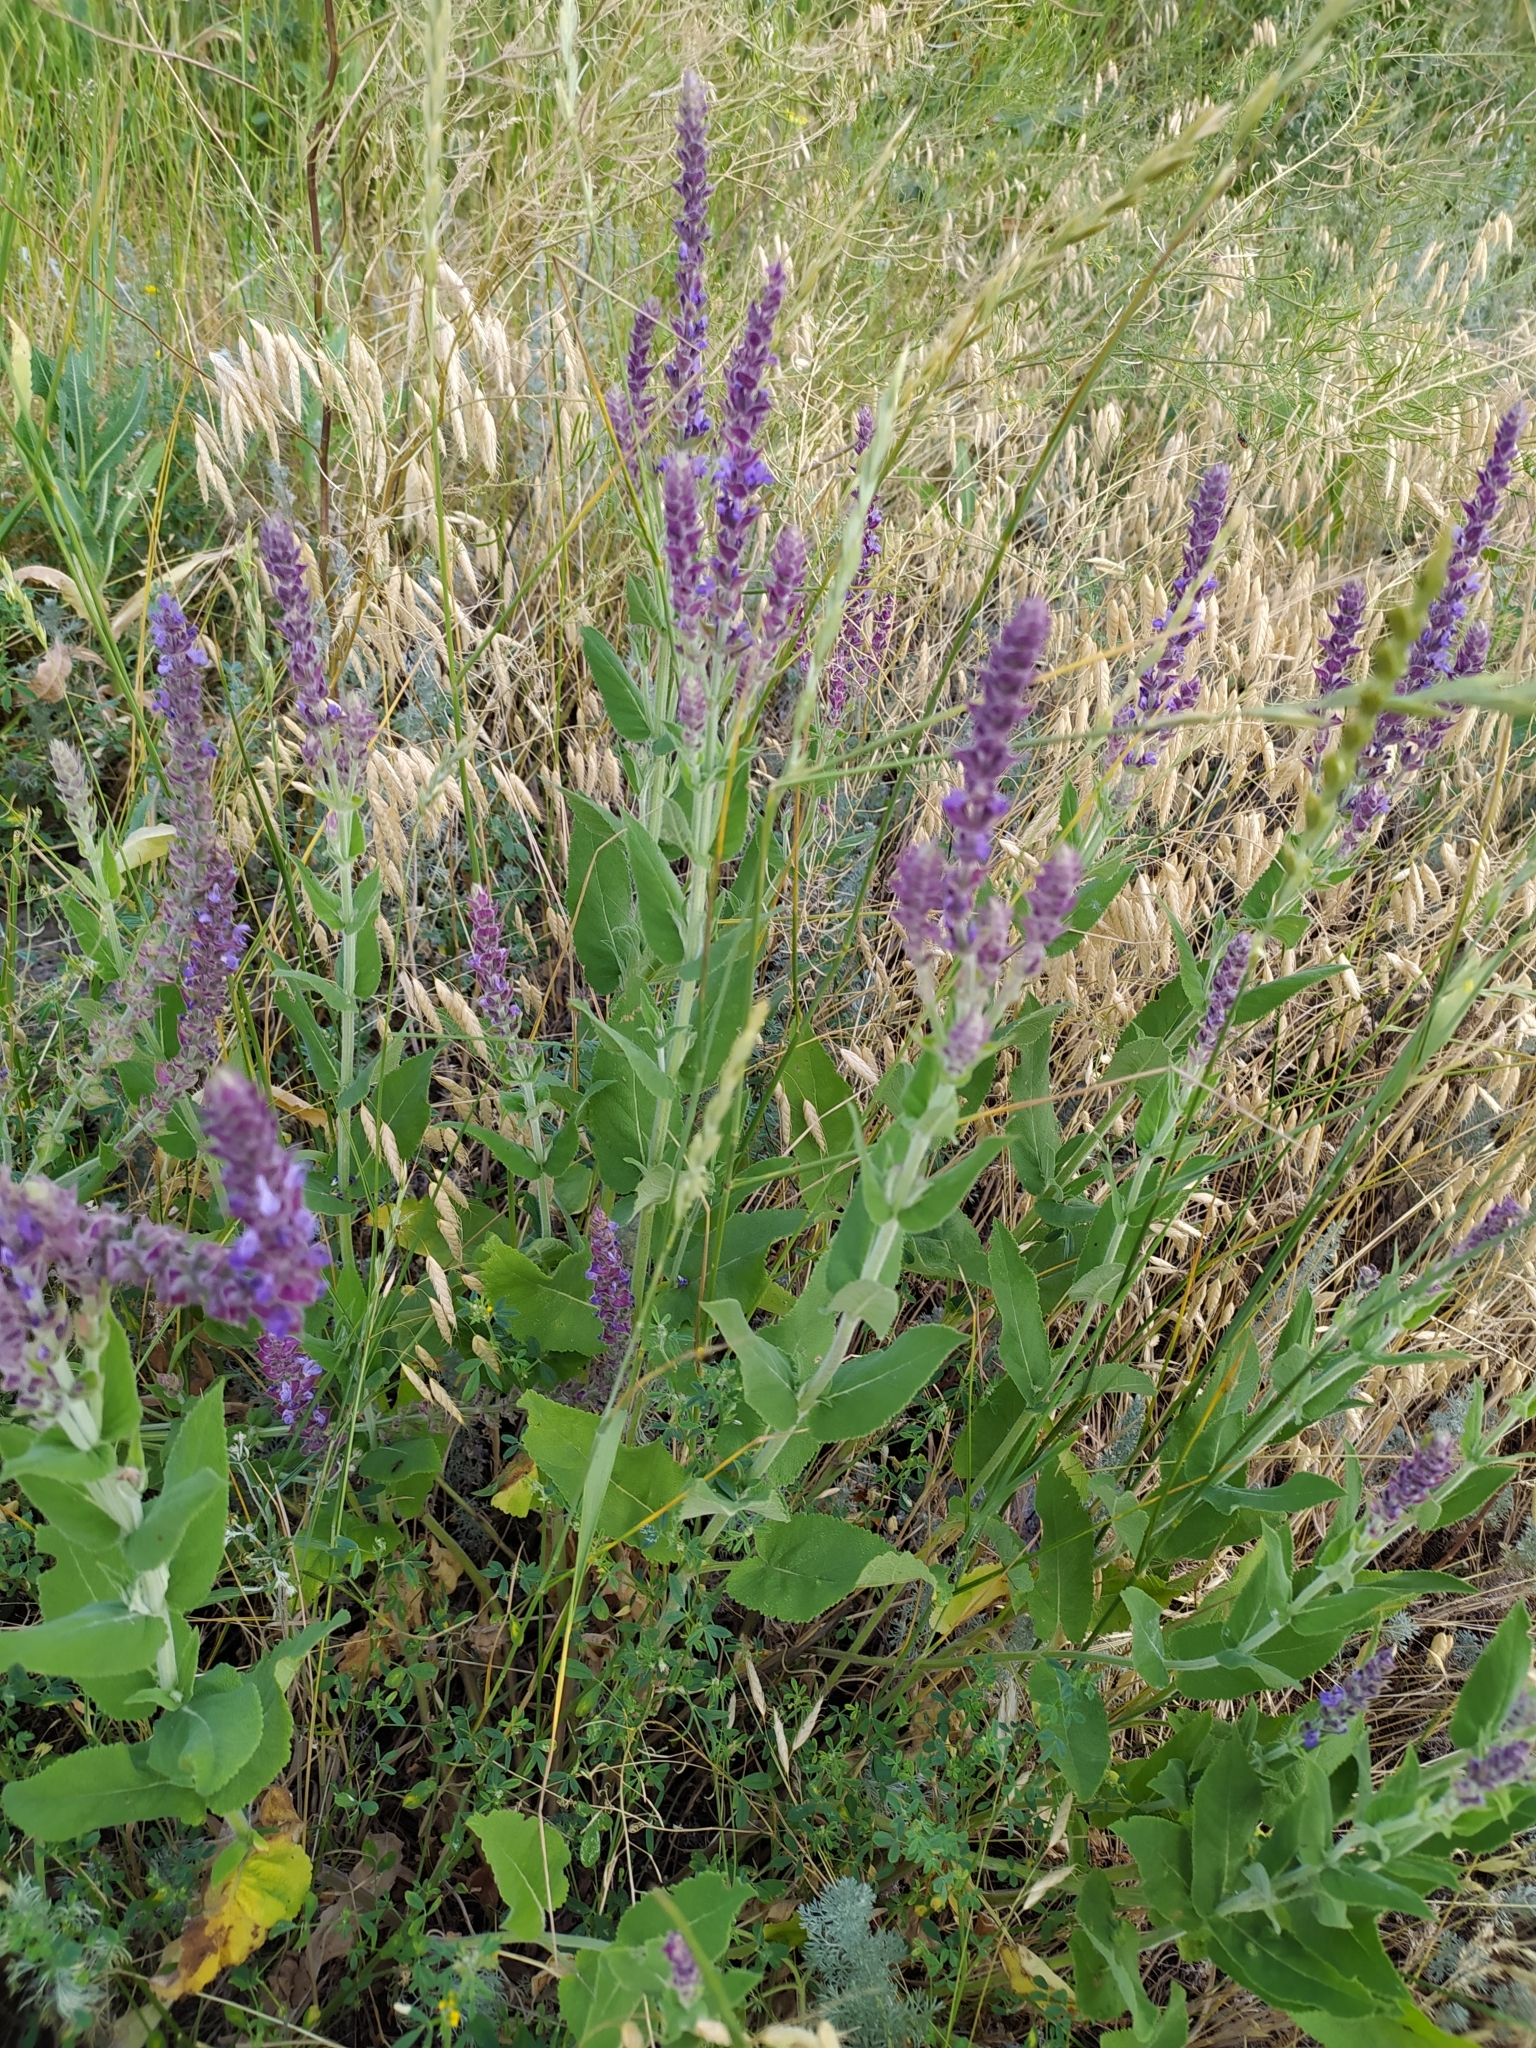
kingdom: Plantae
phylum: Tracheophyta
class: Magnoliopsida
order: Lamiales
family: Lamiaceae
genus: Salvia
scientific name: Salvia nemorosa
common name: Balkan clary
